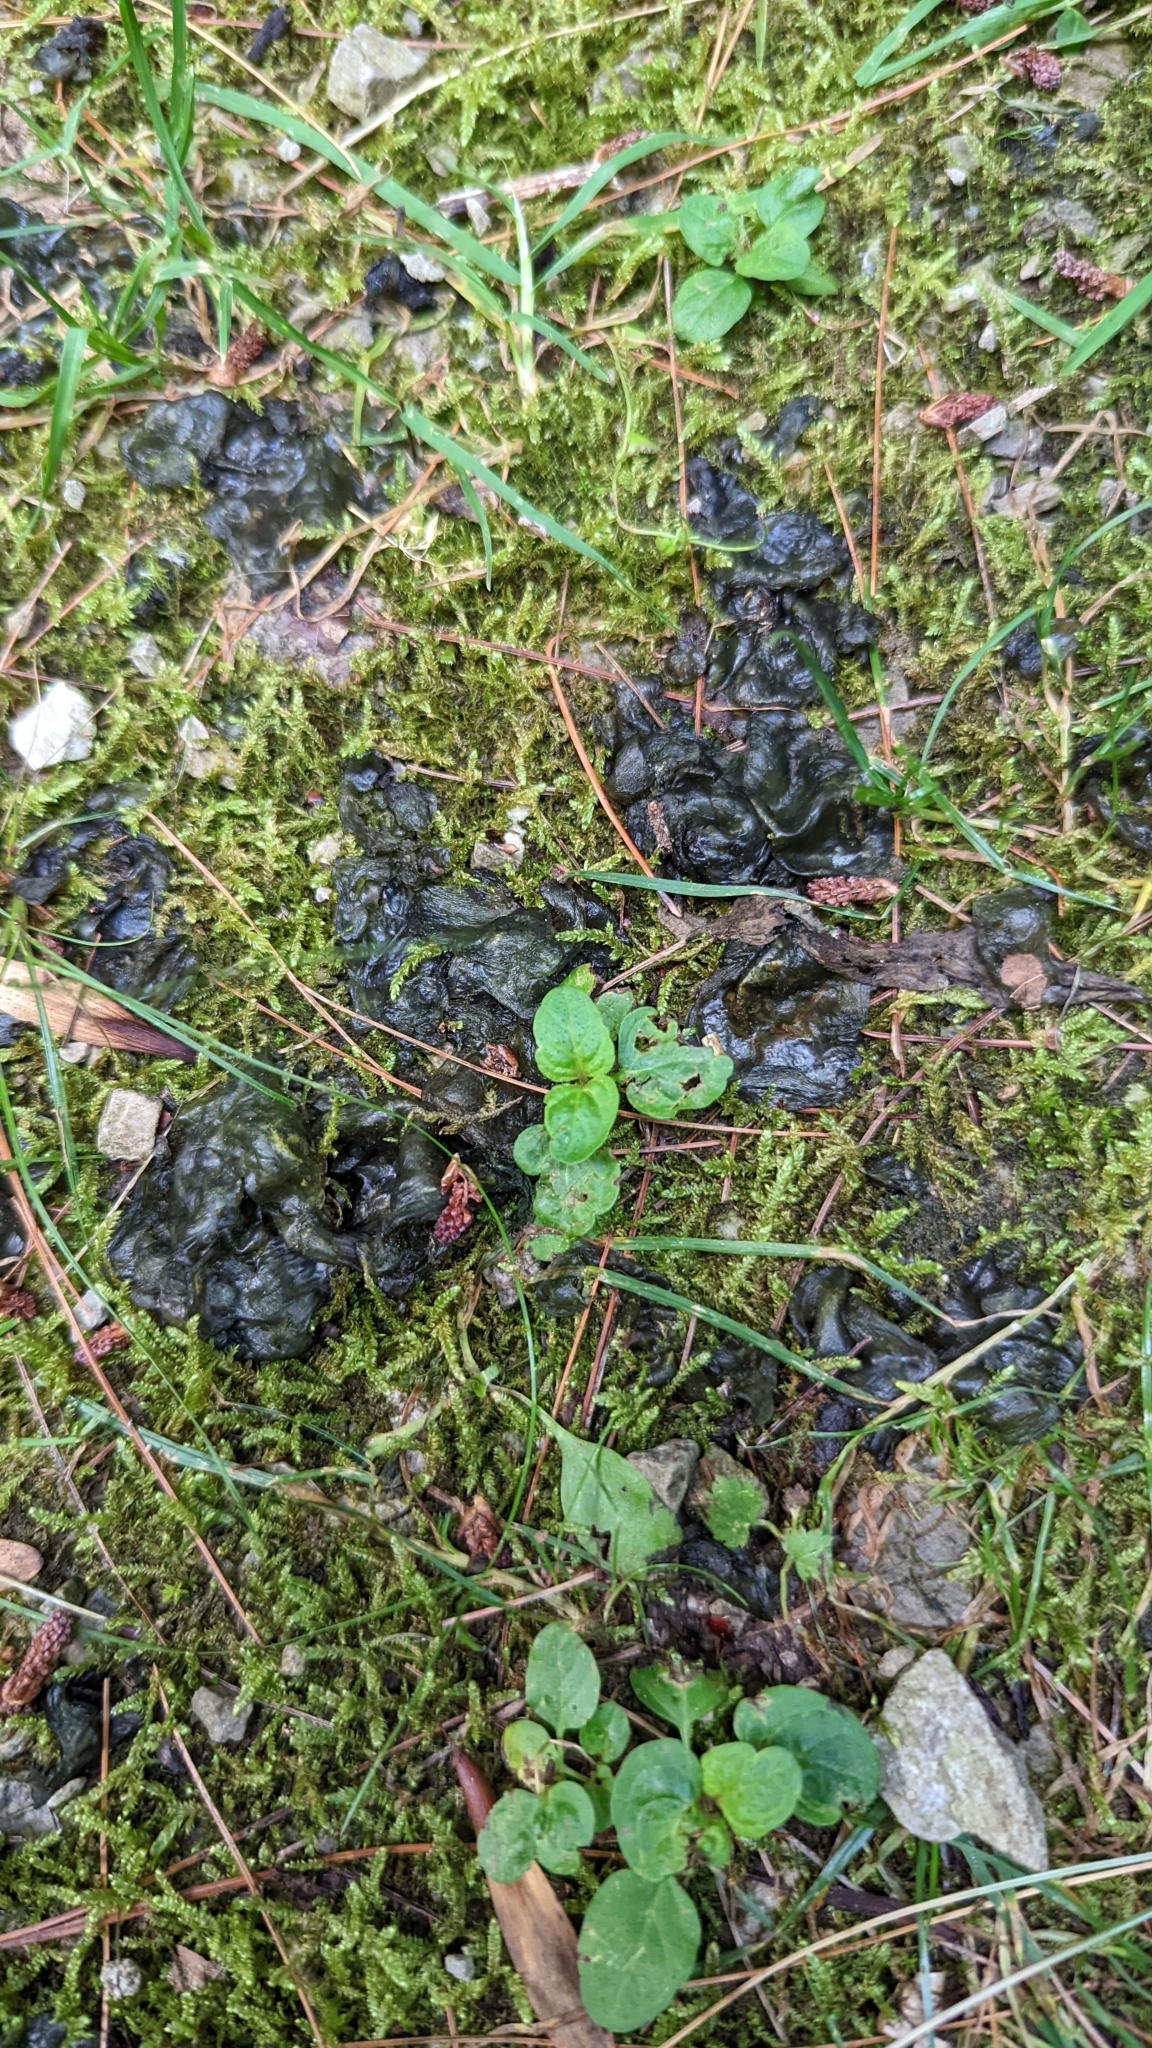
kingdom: Bacteria
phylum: Cyanobacteria
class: Cyanobacteriia
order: Cyanobacteriales
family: Nostocaceae
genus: Nostoc
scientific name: Nostoc commune
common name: Star jelly
